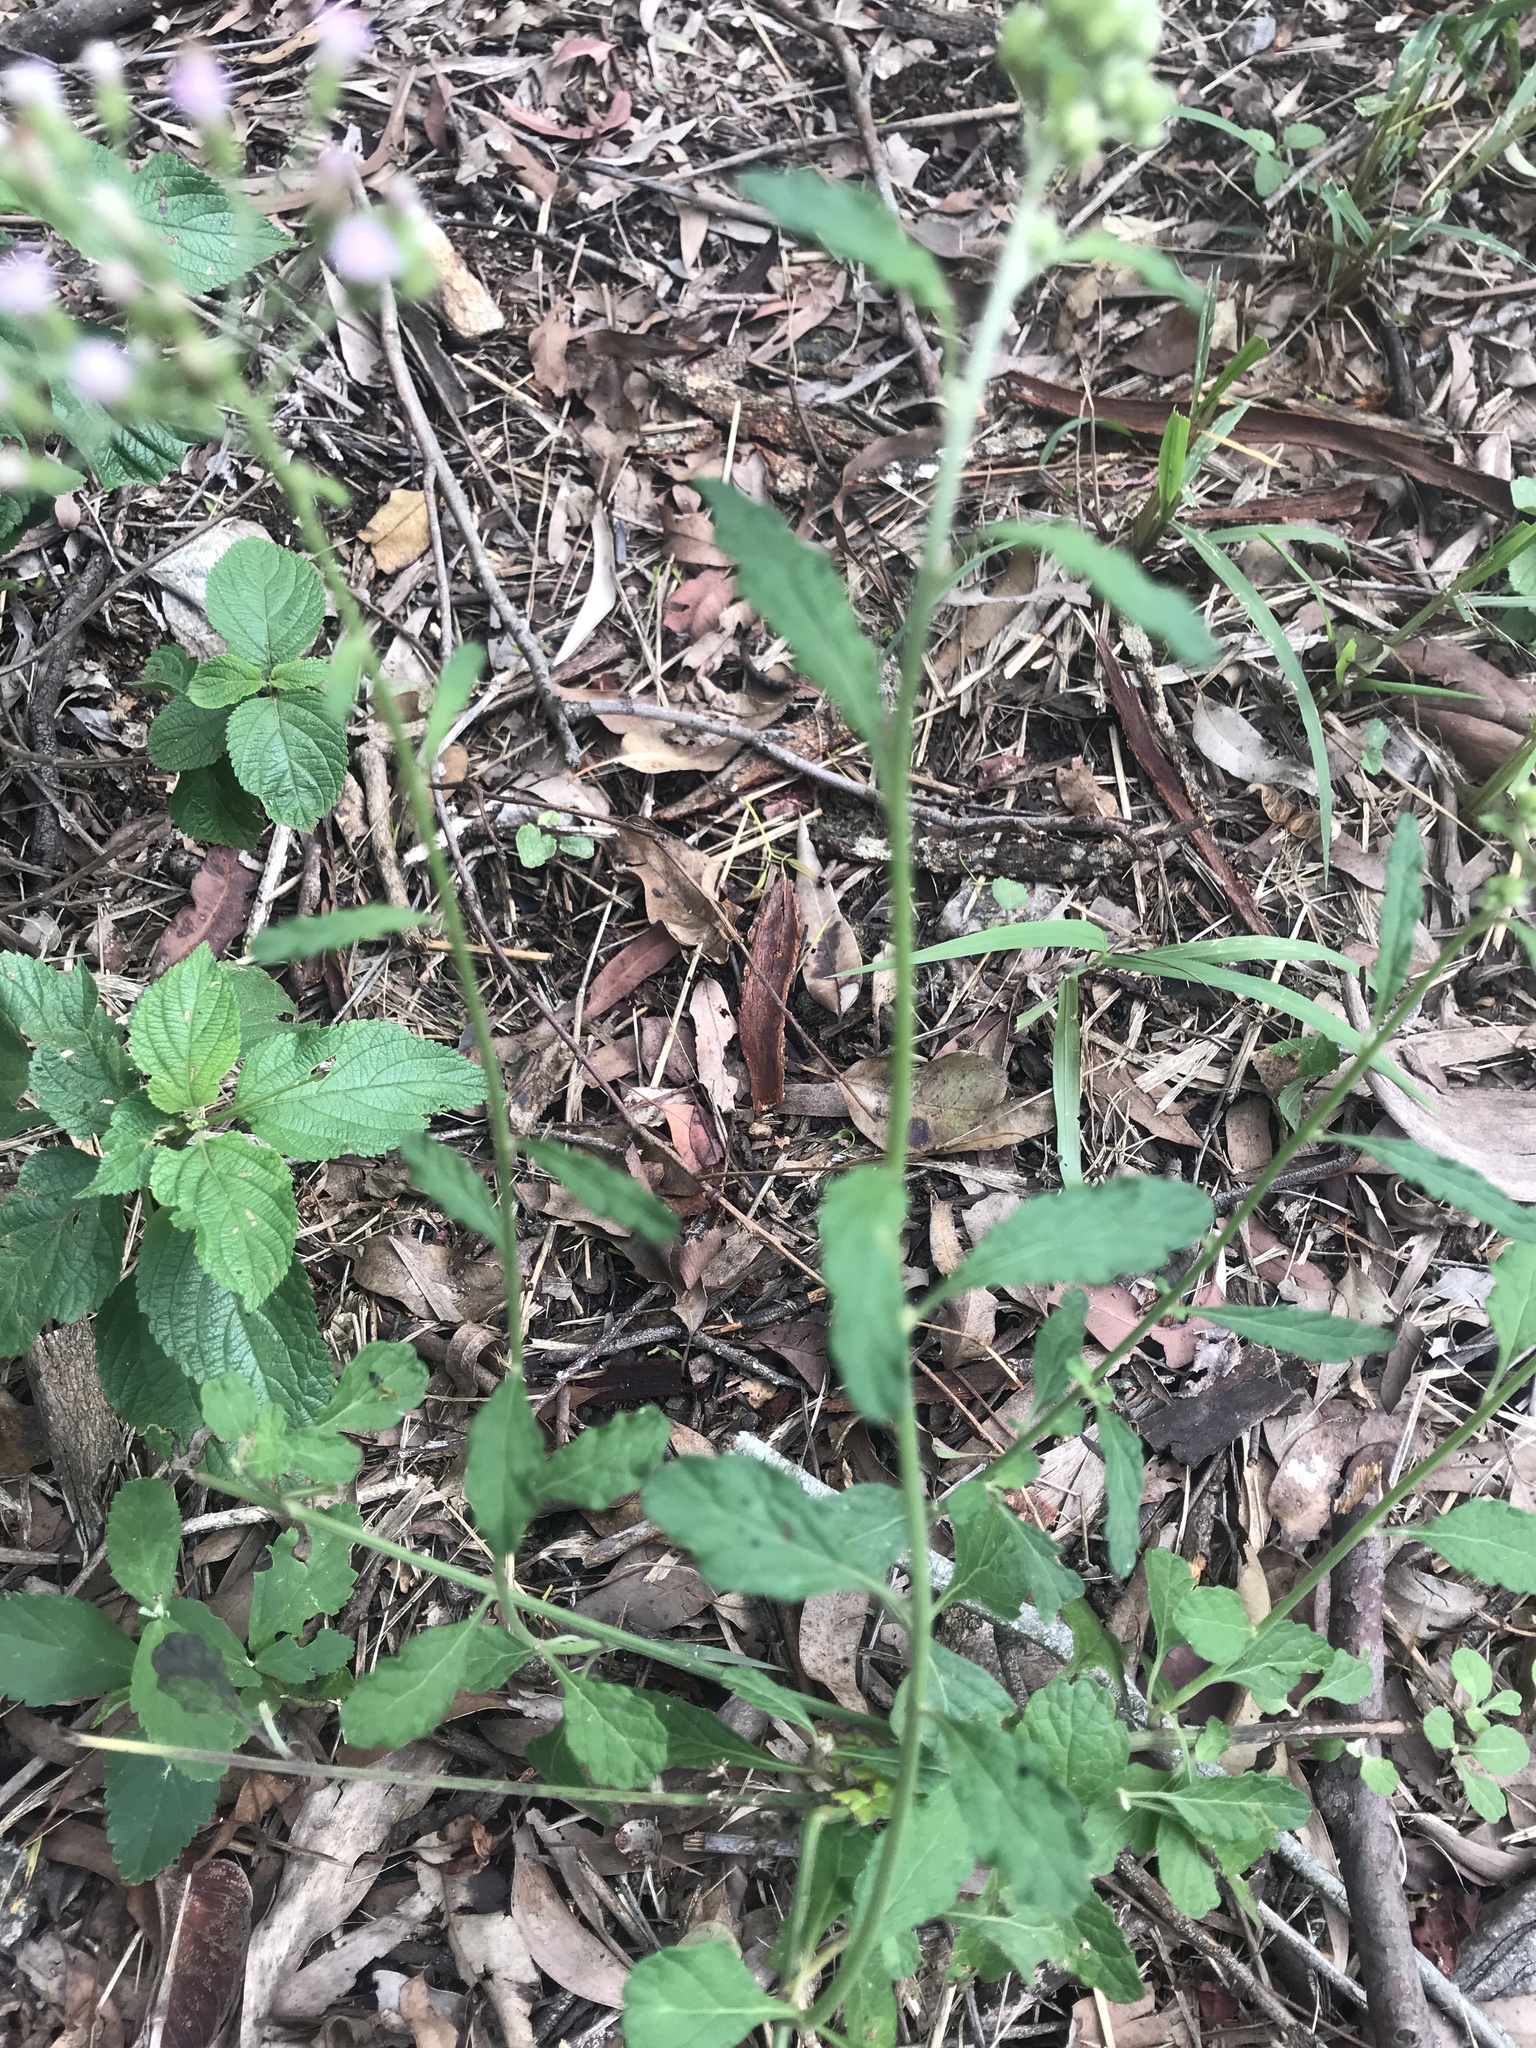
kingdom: Plantae
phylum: Tracheophyta
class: Magnoliopsida
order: Asterales
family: Asteraceae
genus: Cyanthillium
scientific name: Cyanthillium cinereum
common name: Little ironweed
